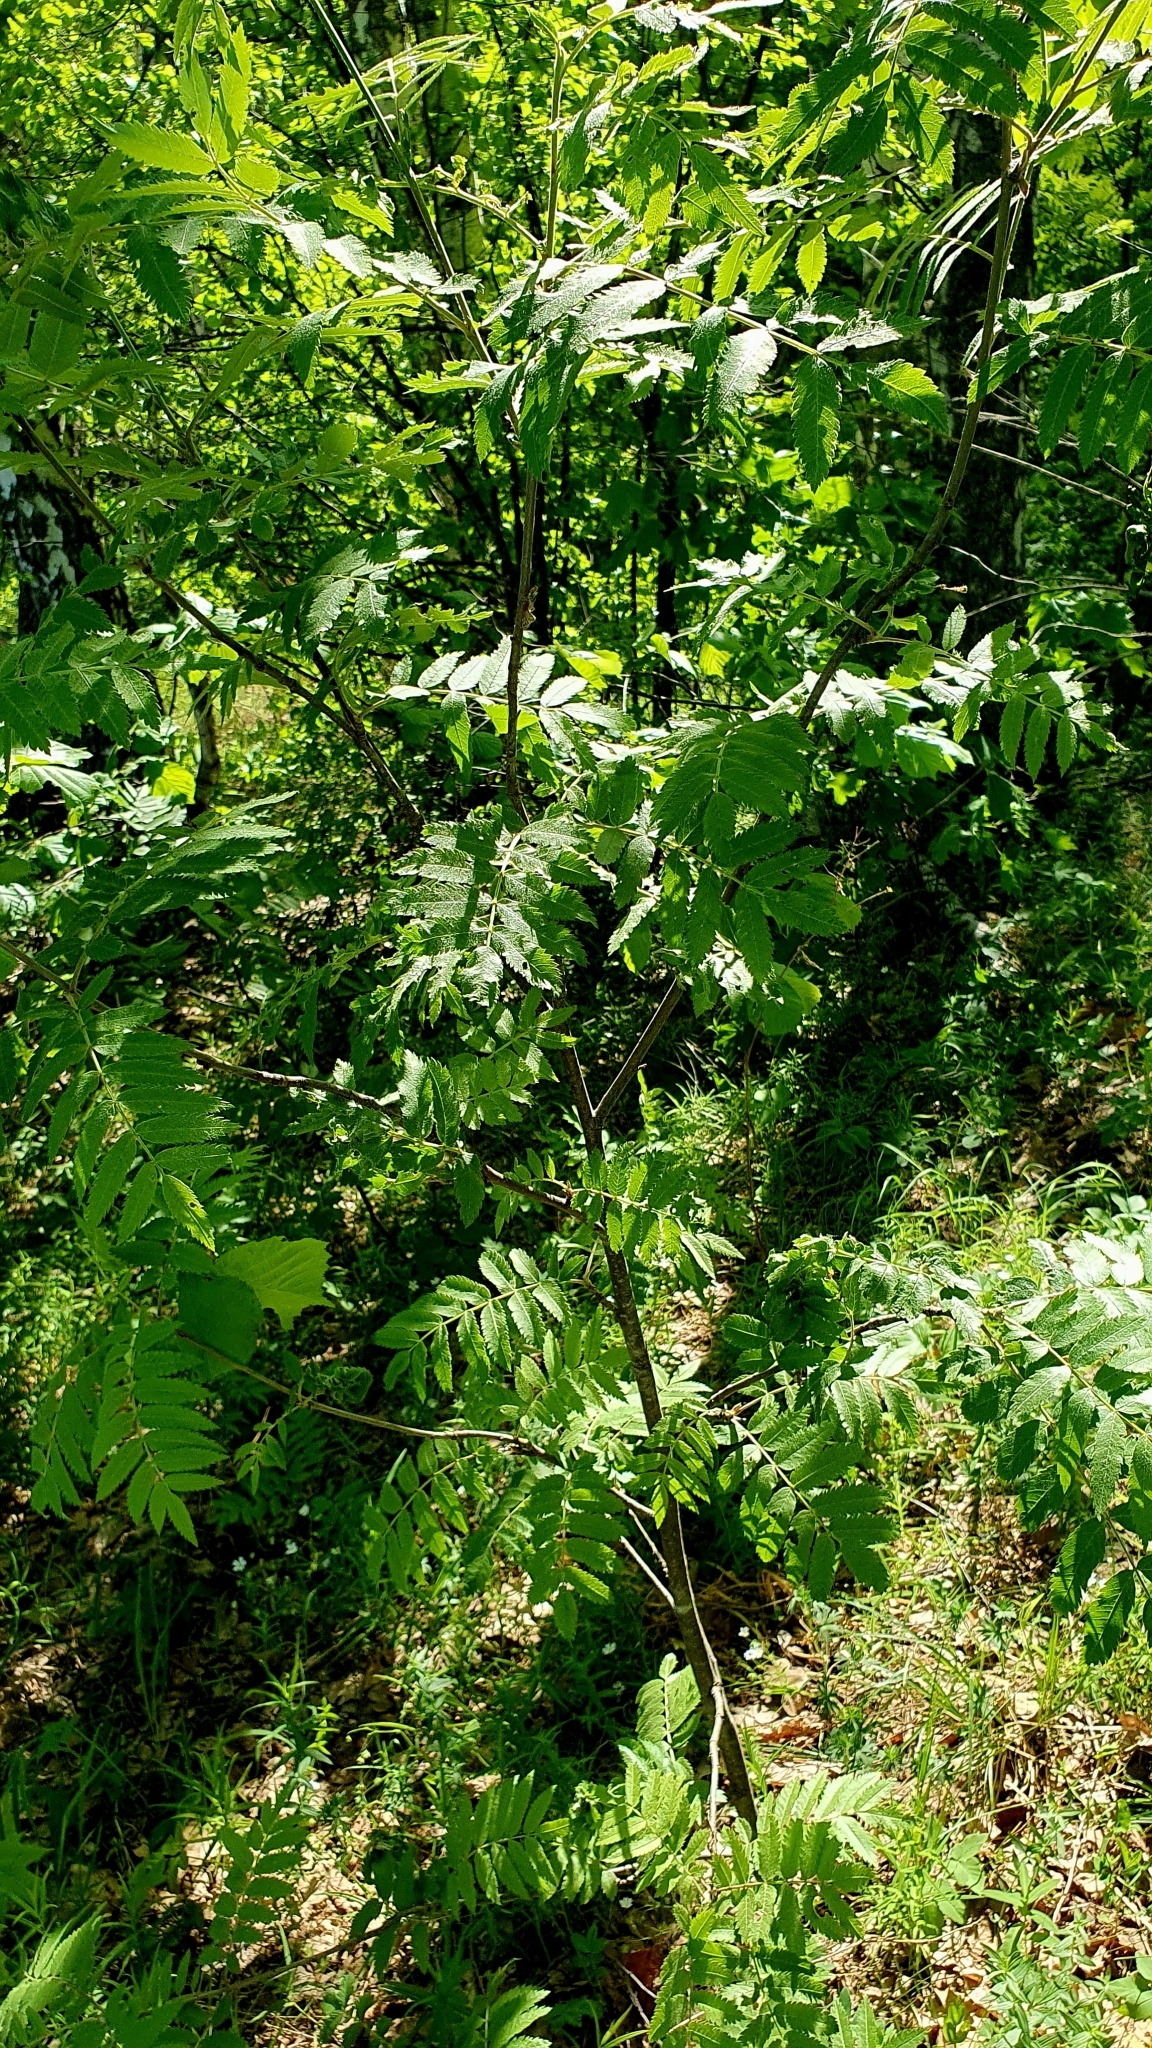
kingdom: Plantae
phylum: Tracheophyta
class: Magnoliopsida
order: Rosales
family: Rosaceae
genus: Sorbus
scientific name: Sorbus aucuparia
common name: Rowan
